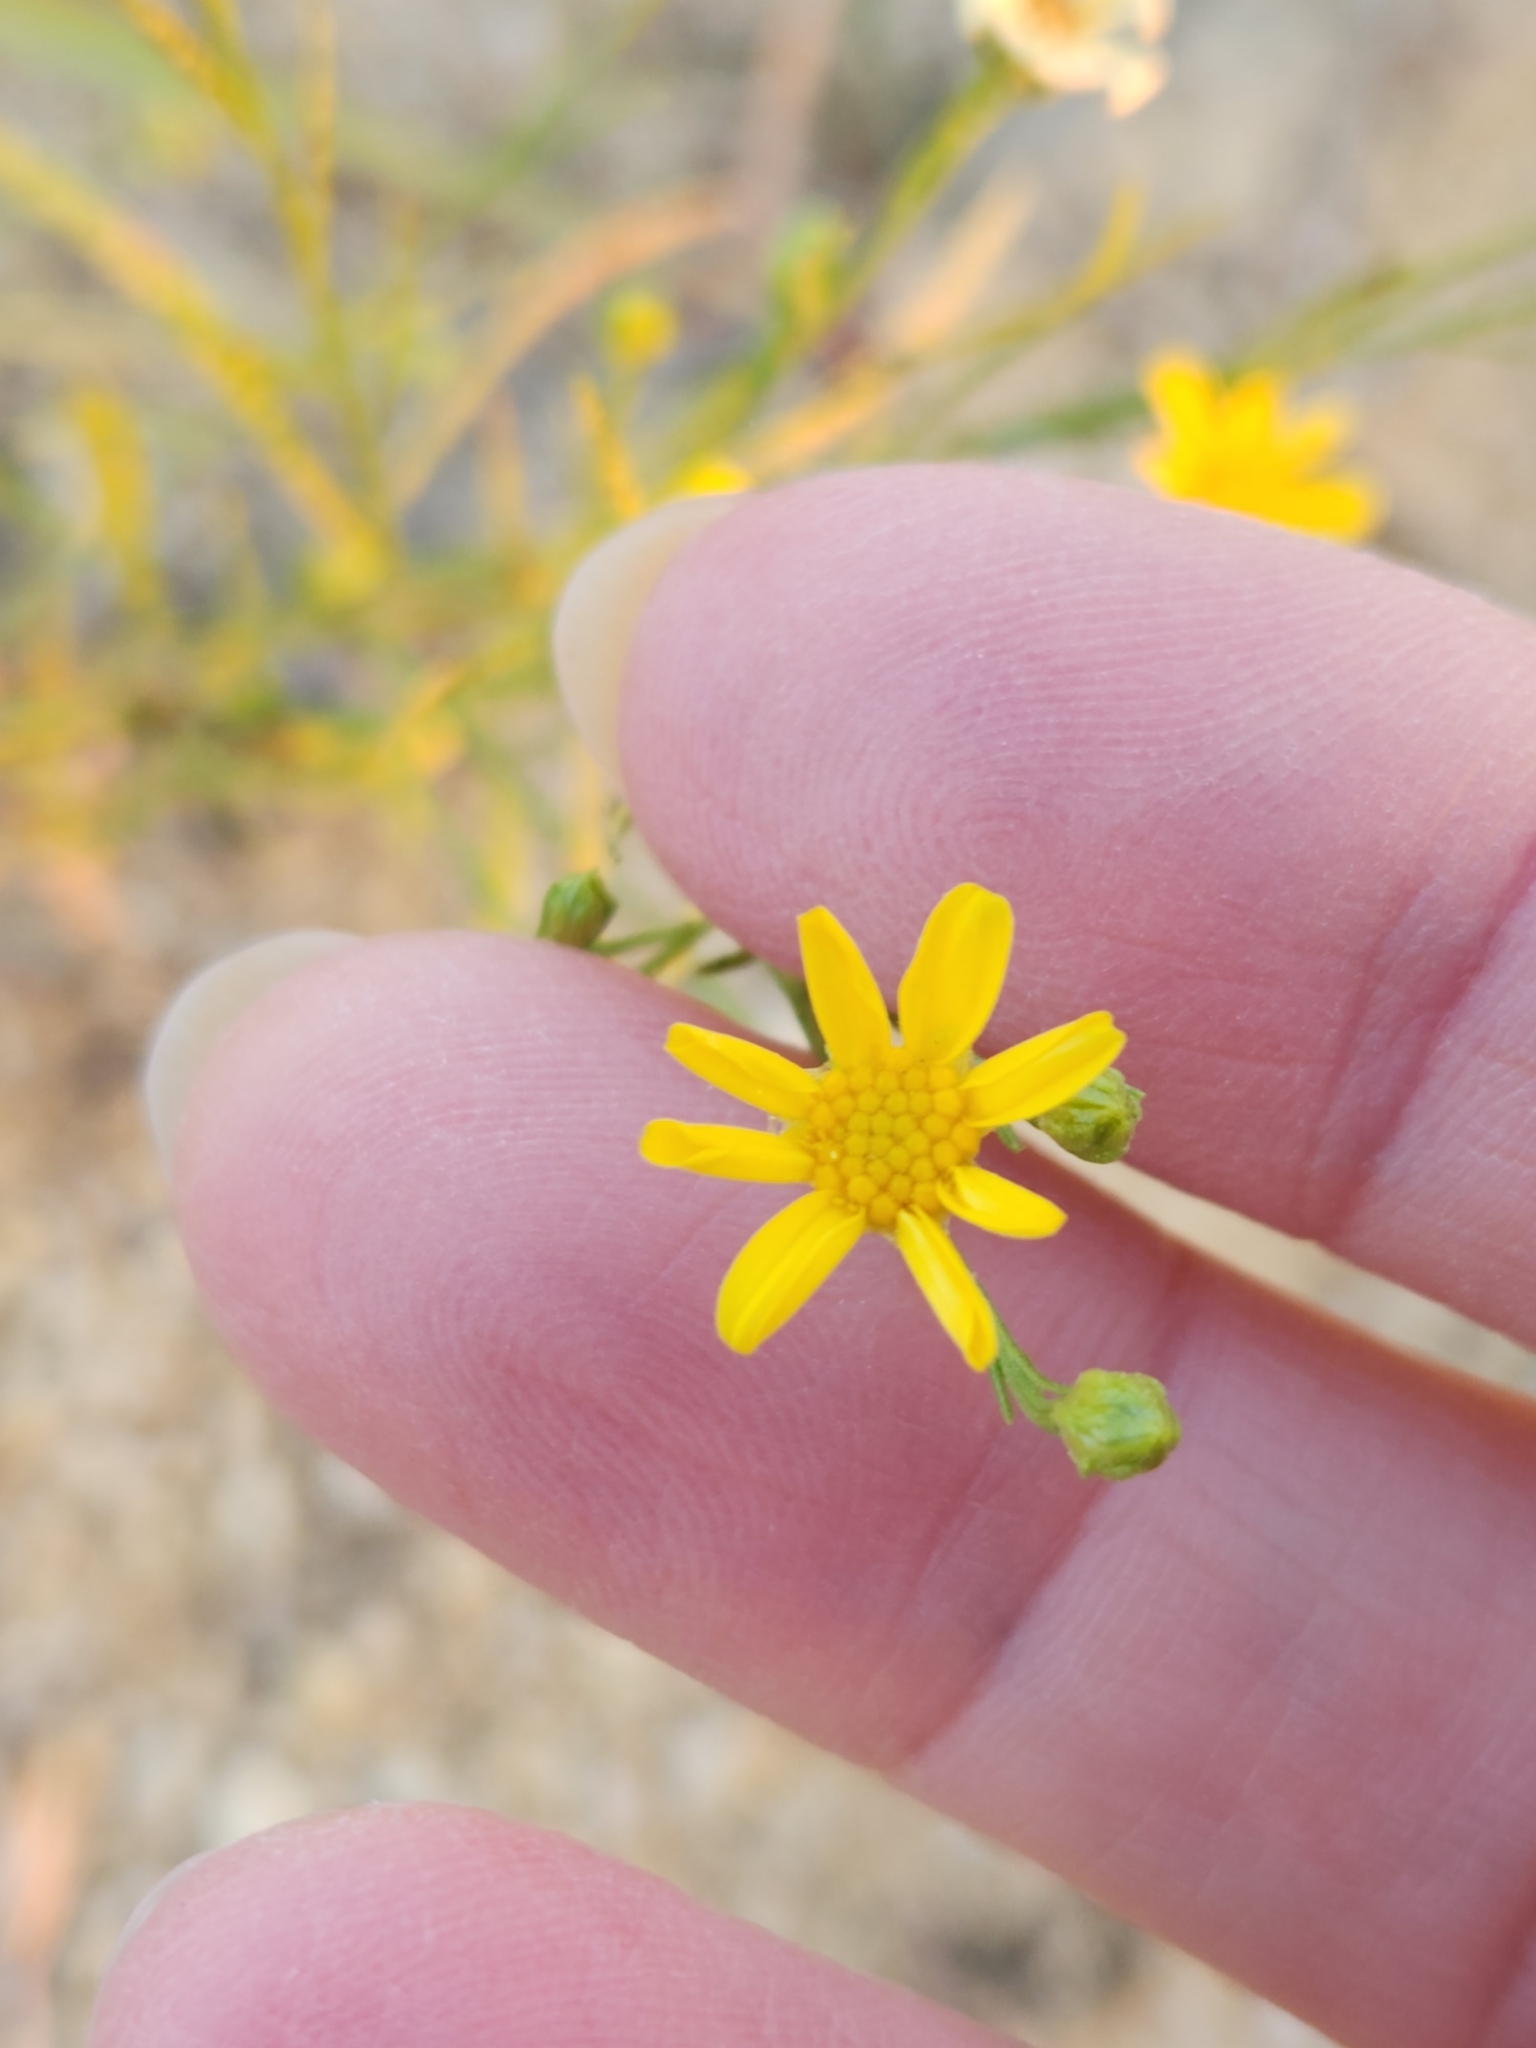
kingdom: Plantae
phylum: Tracheophyta
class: Magnoliopsida
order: Asterales
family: Asteraceae
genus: Amphiachyris
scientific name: Amphiachyris amoenum
